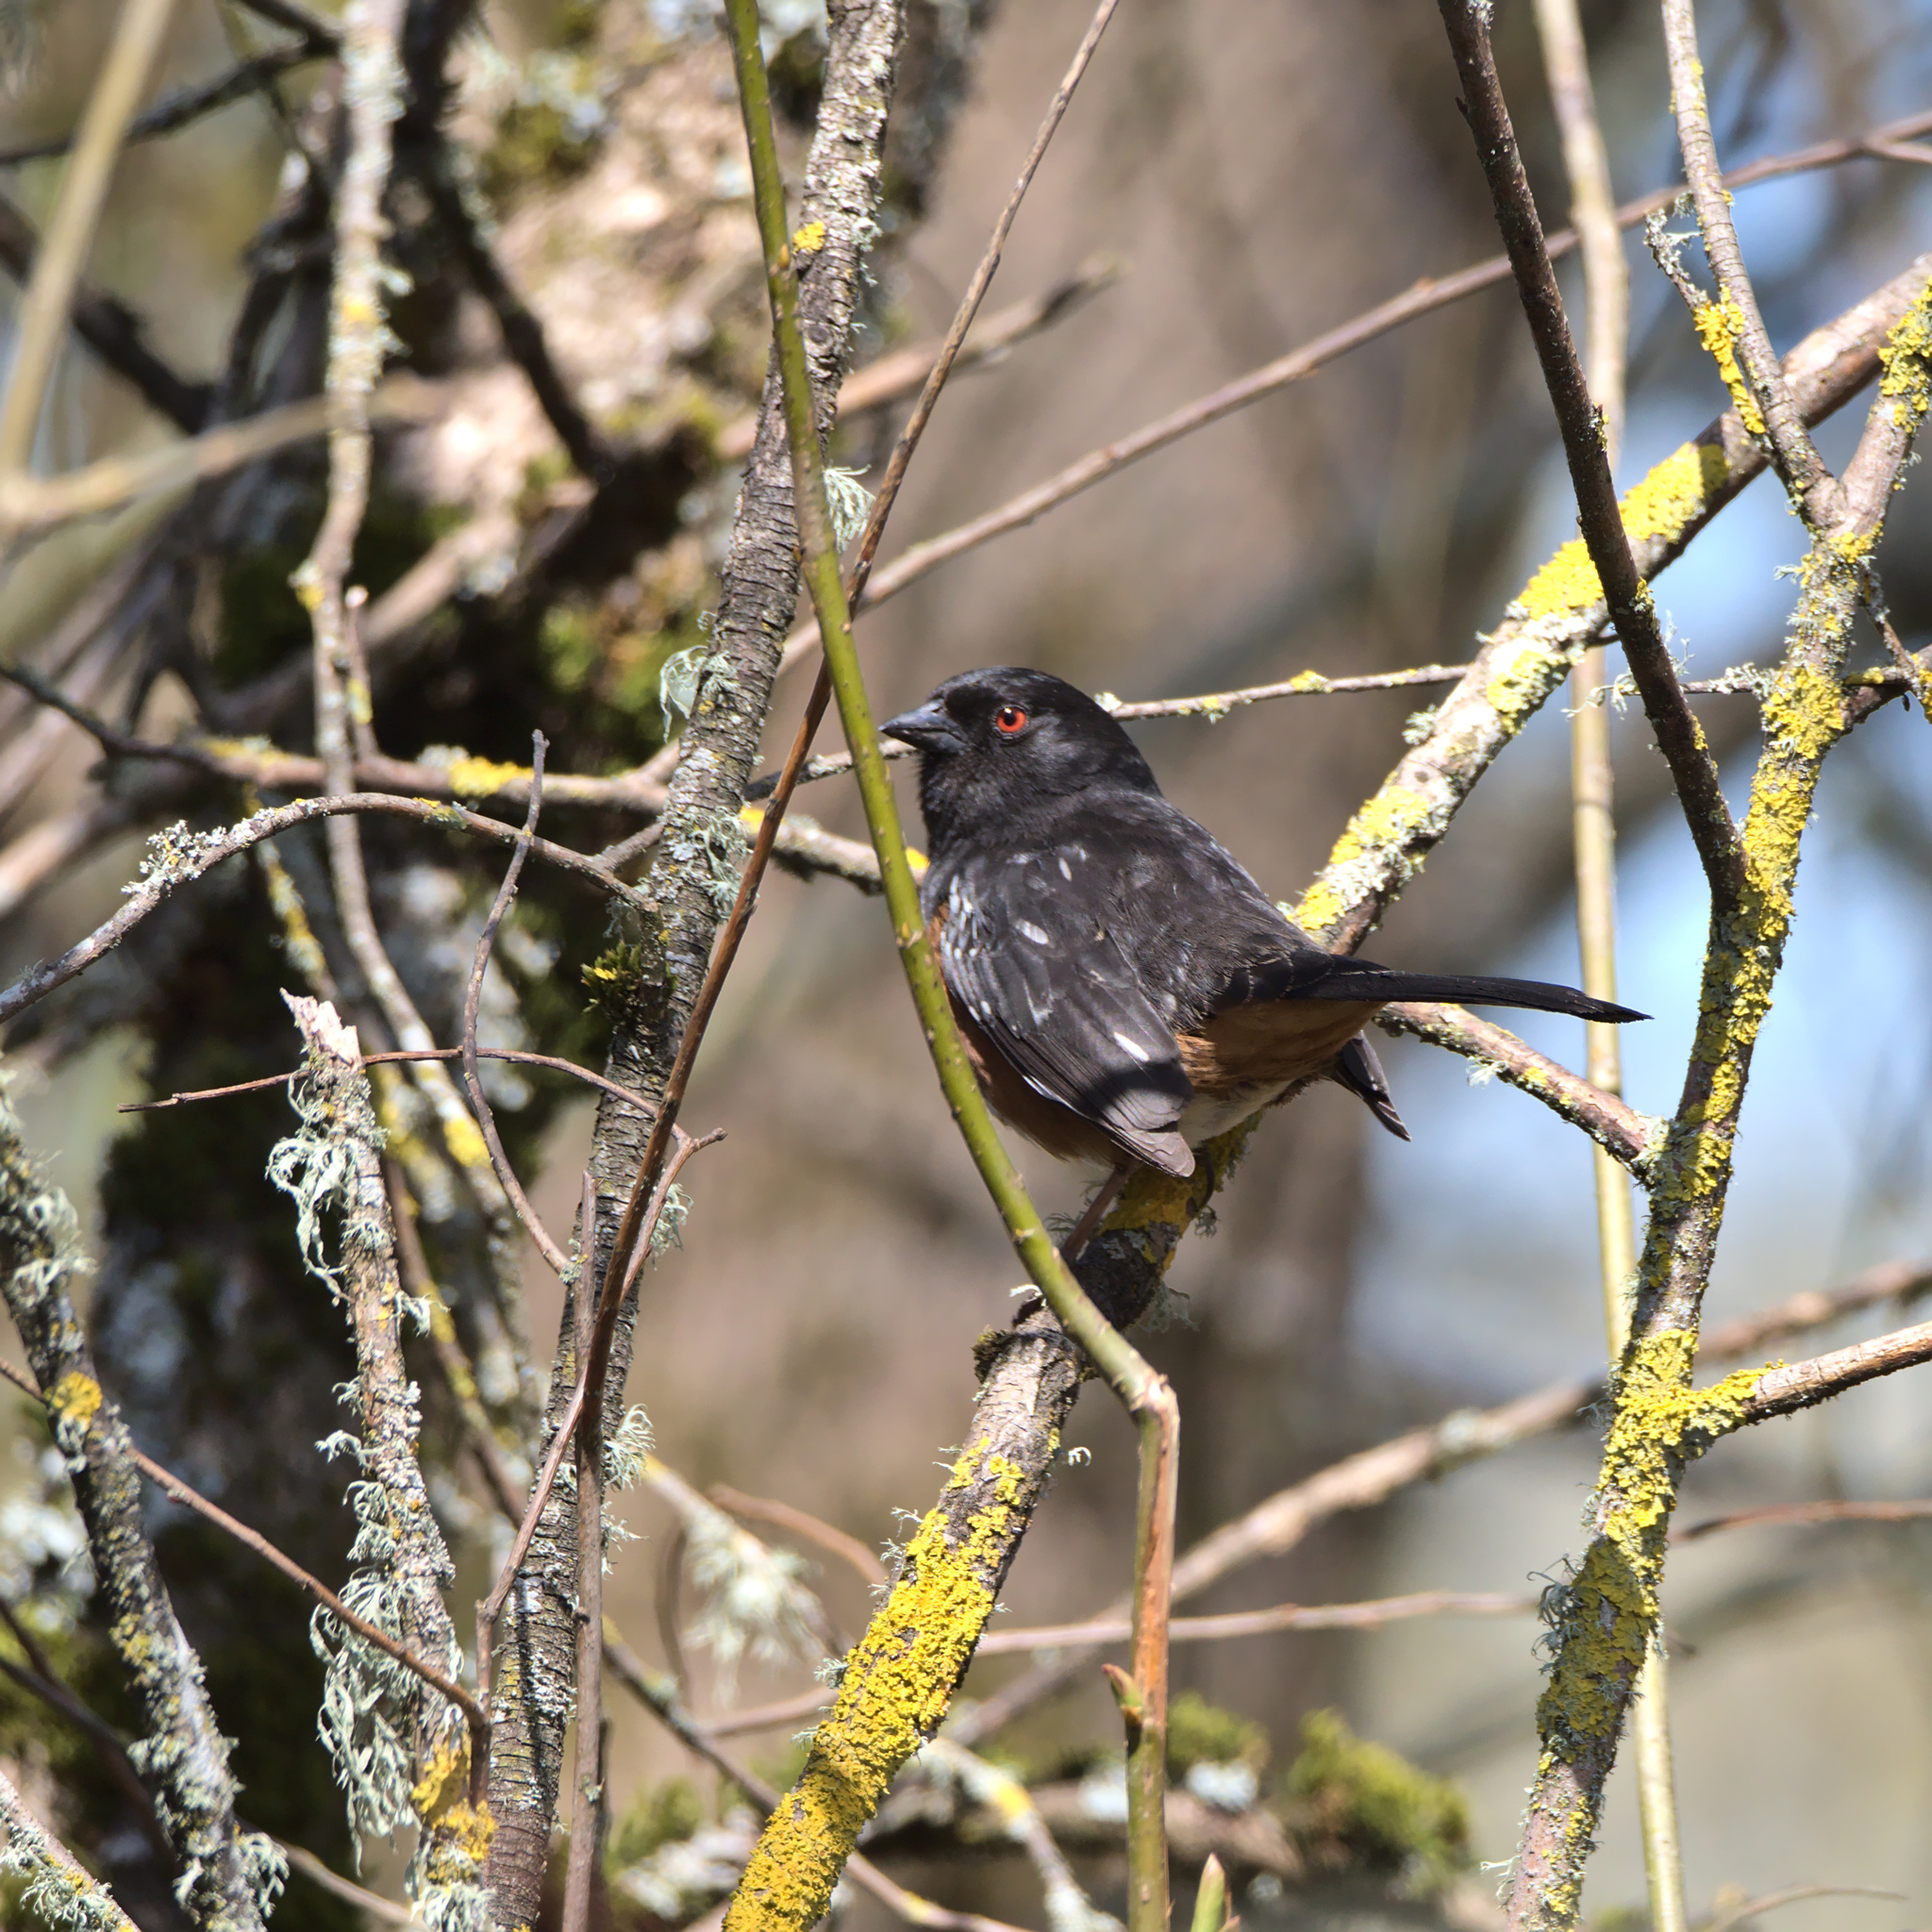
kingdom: Animalia
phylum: Chordata
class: Aves
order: Passeriformes
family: Passerellidae
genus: Pipilo
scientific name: Pipilo maculatus
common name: Spotted towhee
